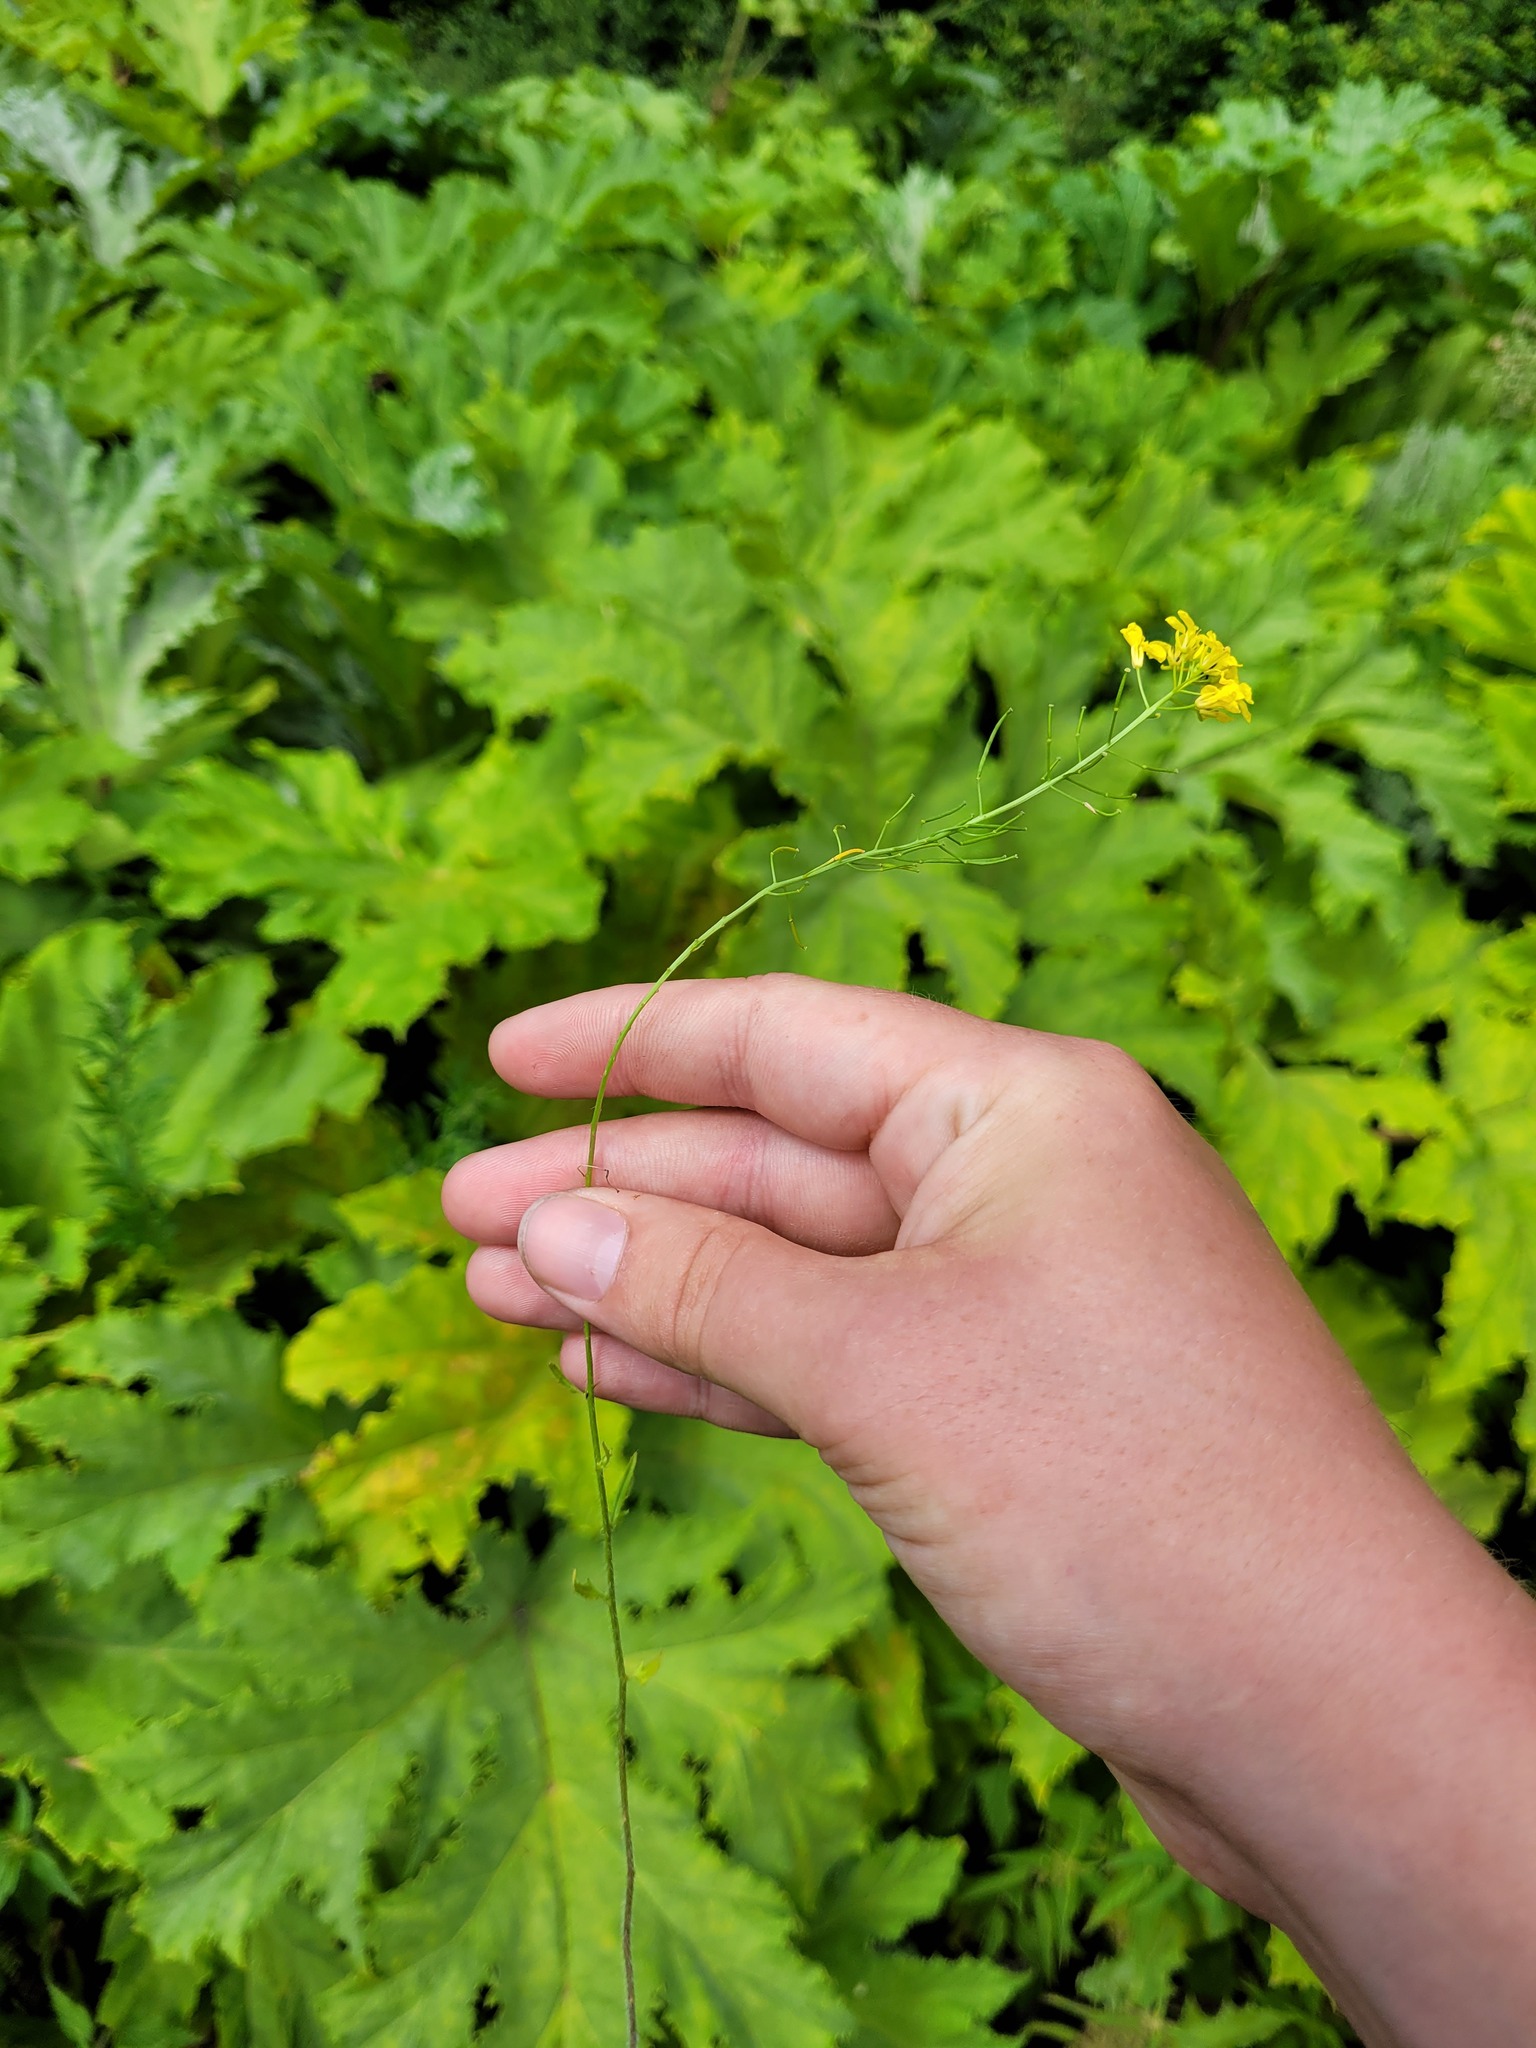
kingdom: Plantae
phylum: Tracheophyta
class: Magnoliopsida
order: Brassicales
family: Brassicaceae
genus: Sisymbrium
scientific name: Sisymbrium loeselii
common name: False london-rocket
